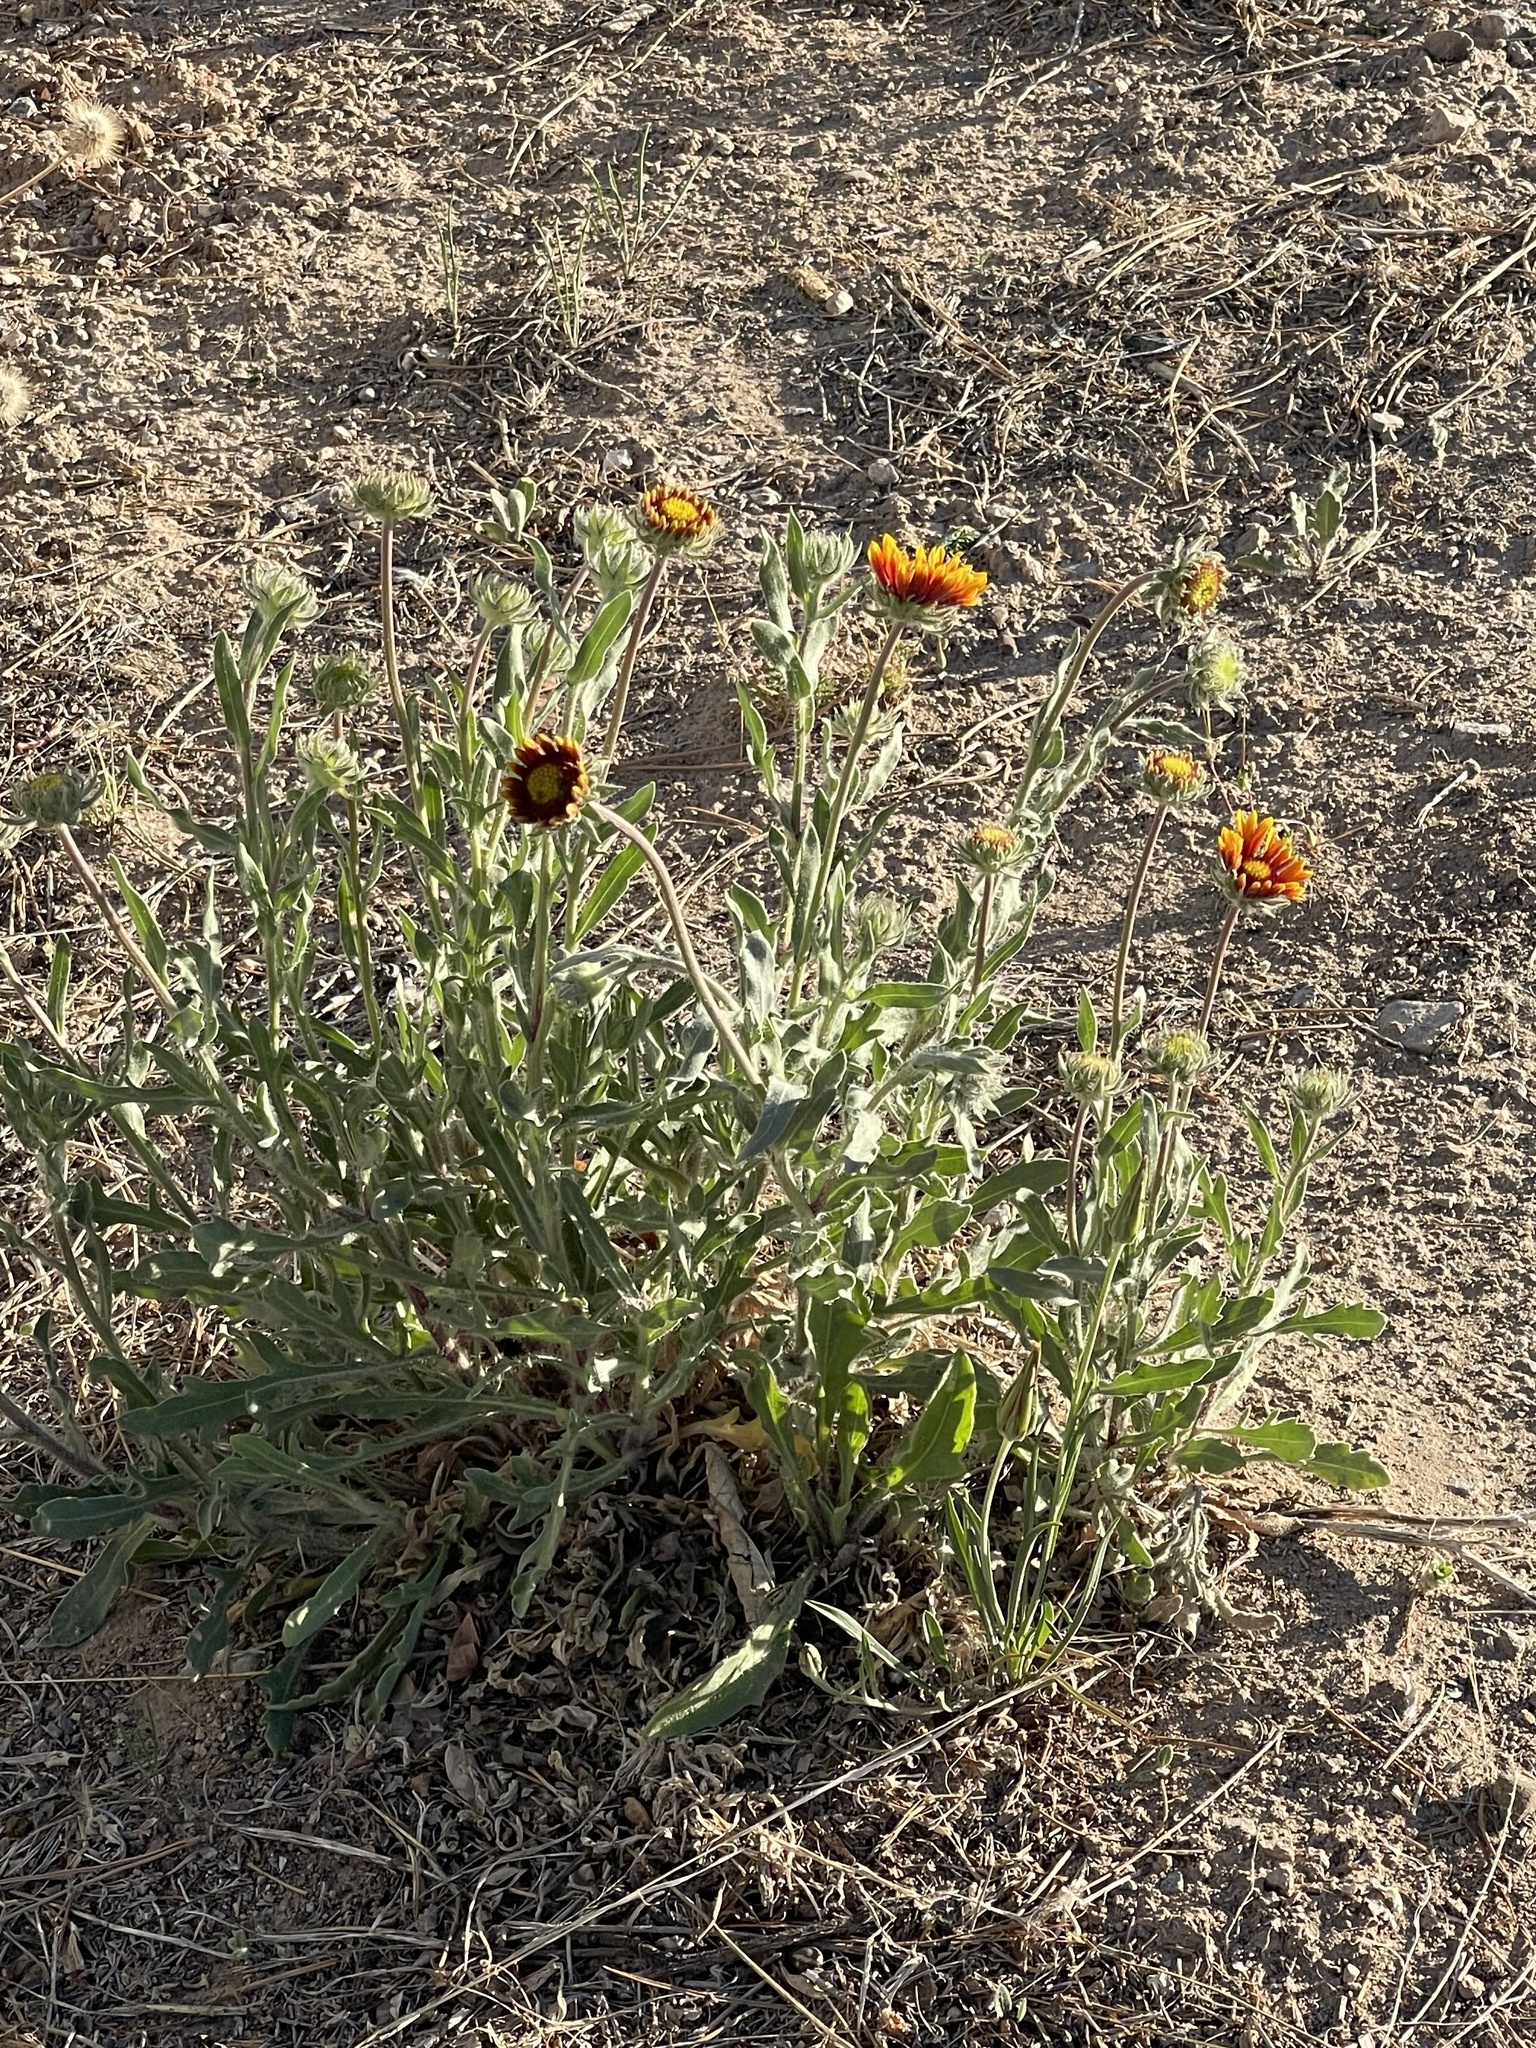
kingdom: Plantae
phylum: Tracheophyta
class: Magnoliopsida
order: Asterales
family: Asteraceae
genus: Gaillardia
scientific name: Gaillardia pulchella
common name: Firewheel
